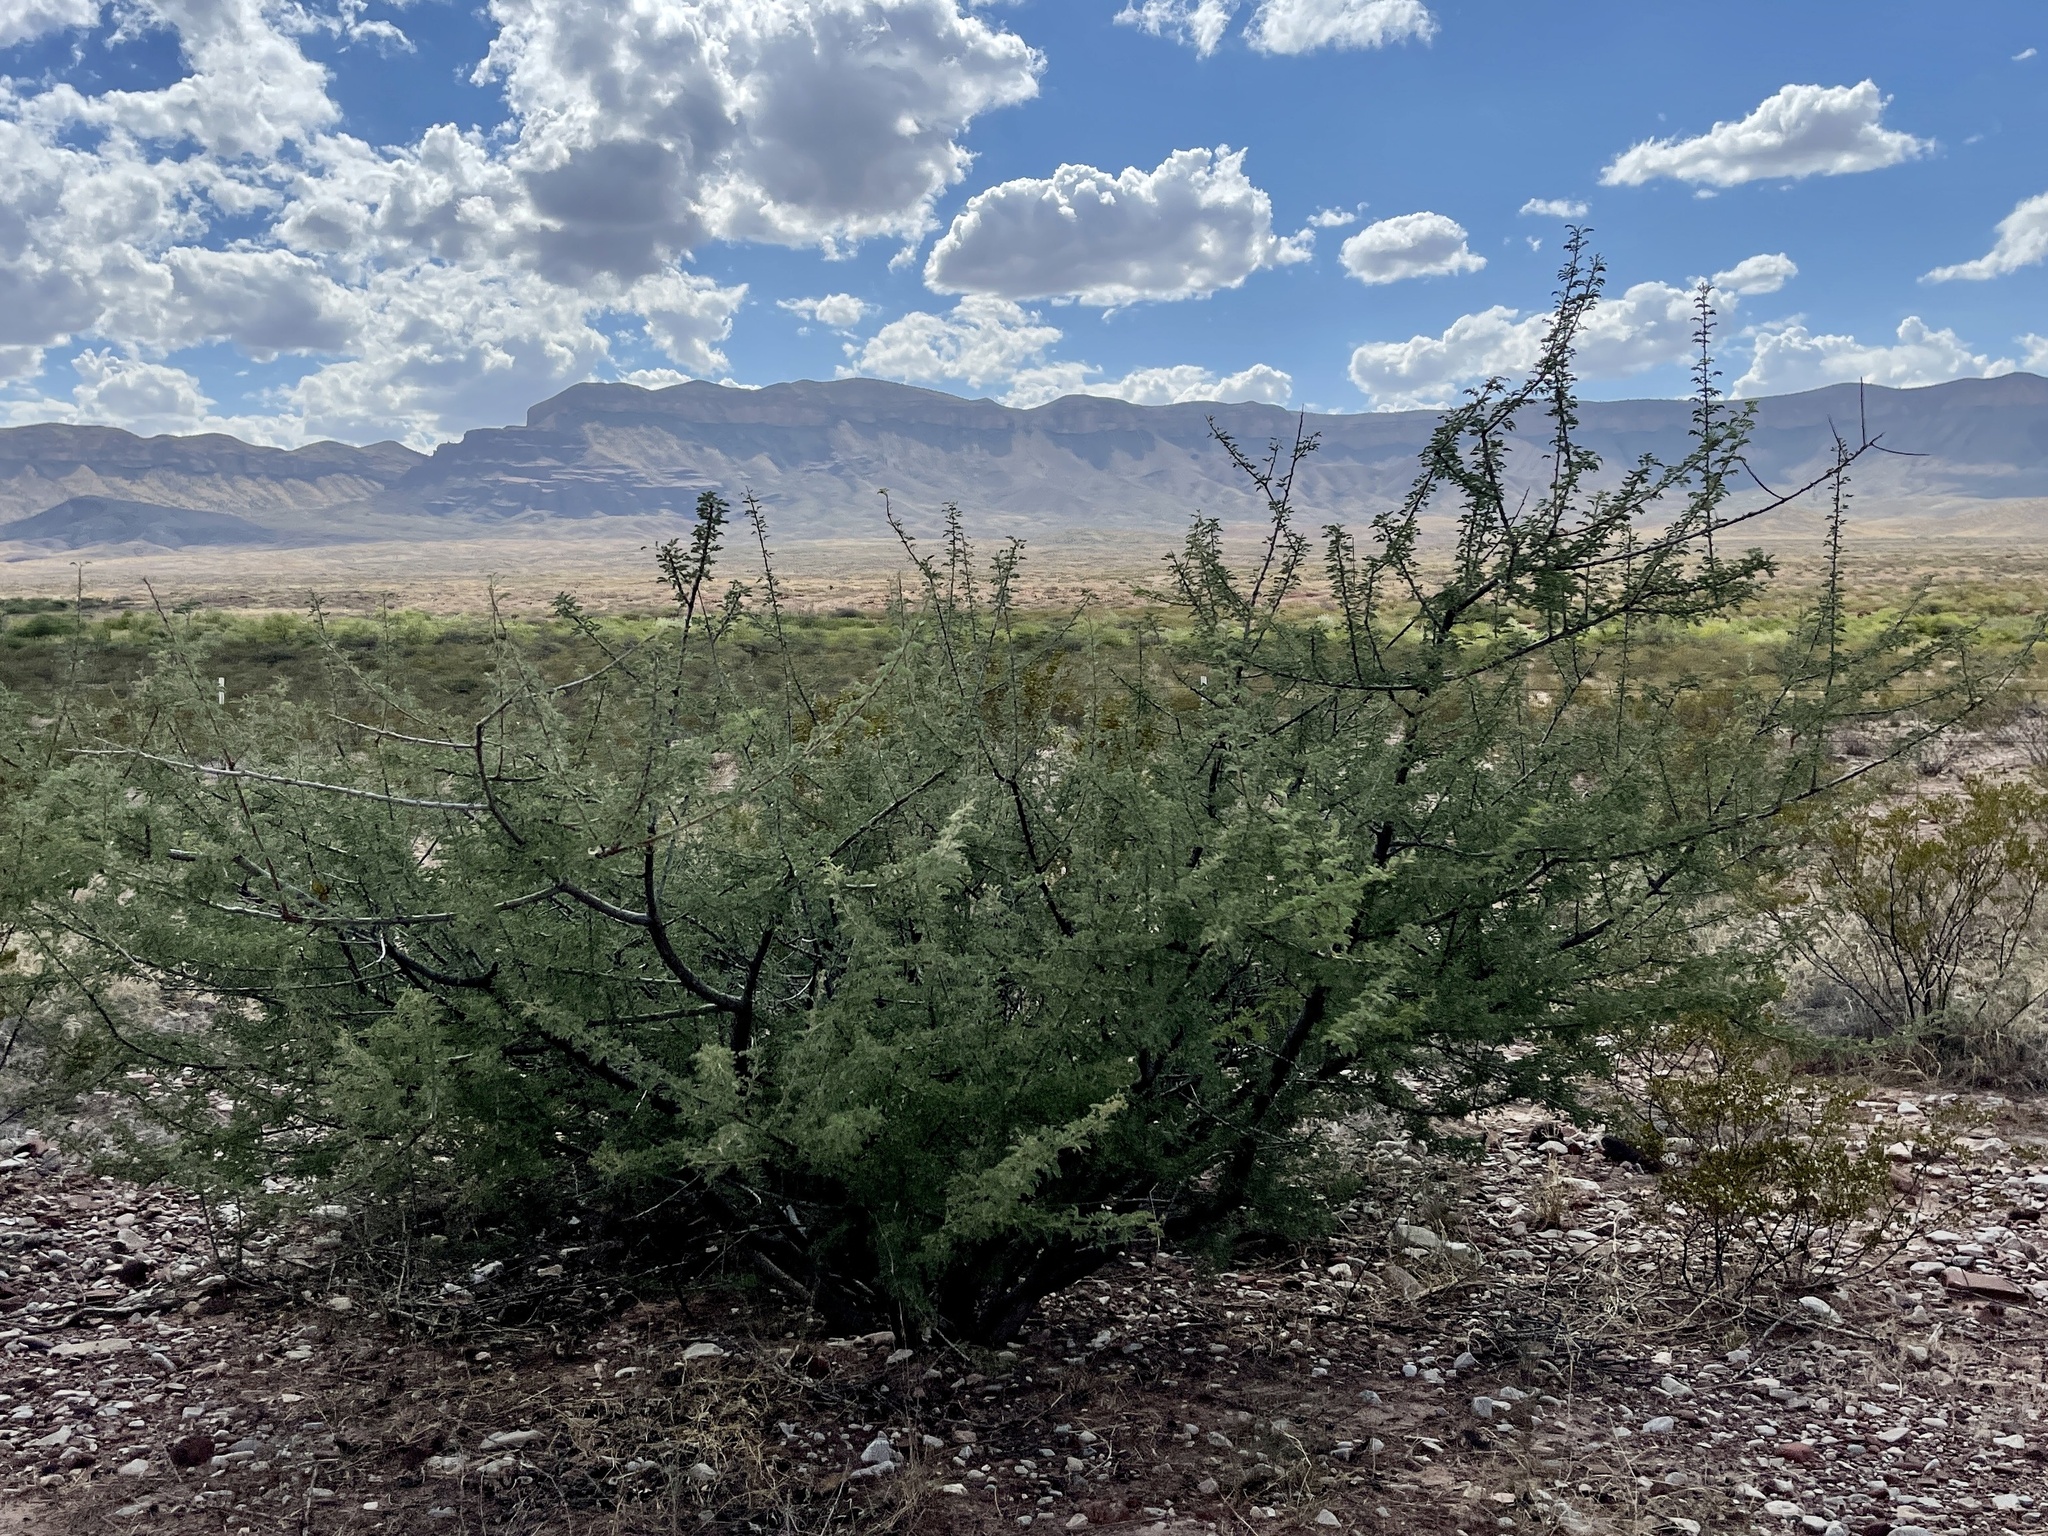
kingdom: Plantae
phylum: Tracheophyta
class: Magnoliopsida
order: Fabales
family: Fabaceae
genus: Senegalia
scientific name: Senegalia greggii
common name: Texas-mimosa
